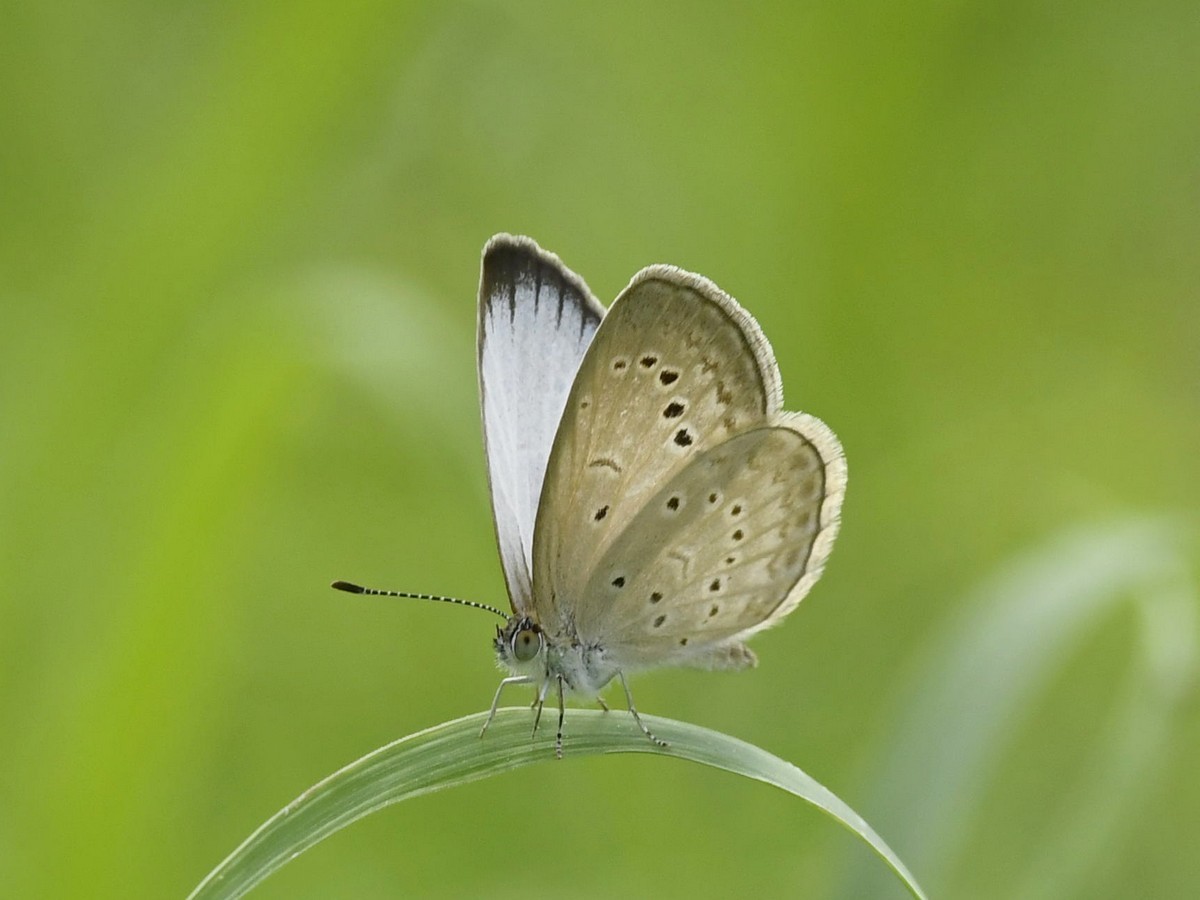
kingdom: Animalia
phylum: Arthropoda
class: Insecta
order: Lepidoptera
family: Lycaenidae
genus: Pseudozizeeria
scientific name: Pseudozizeeria maha
